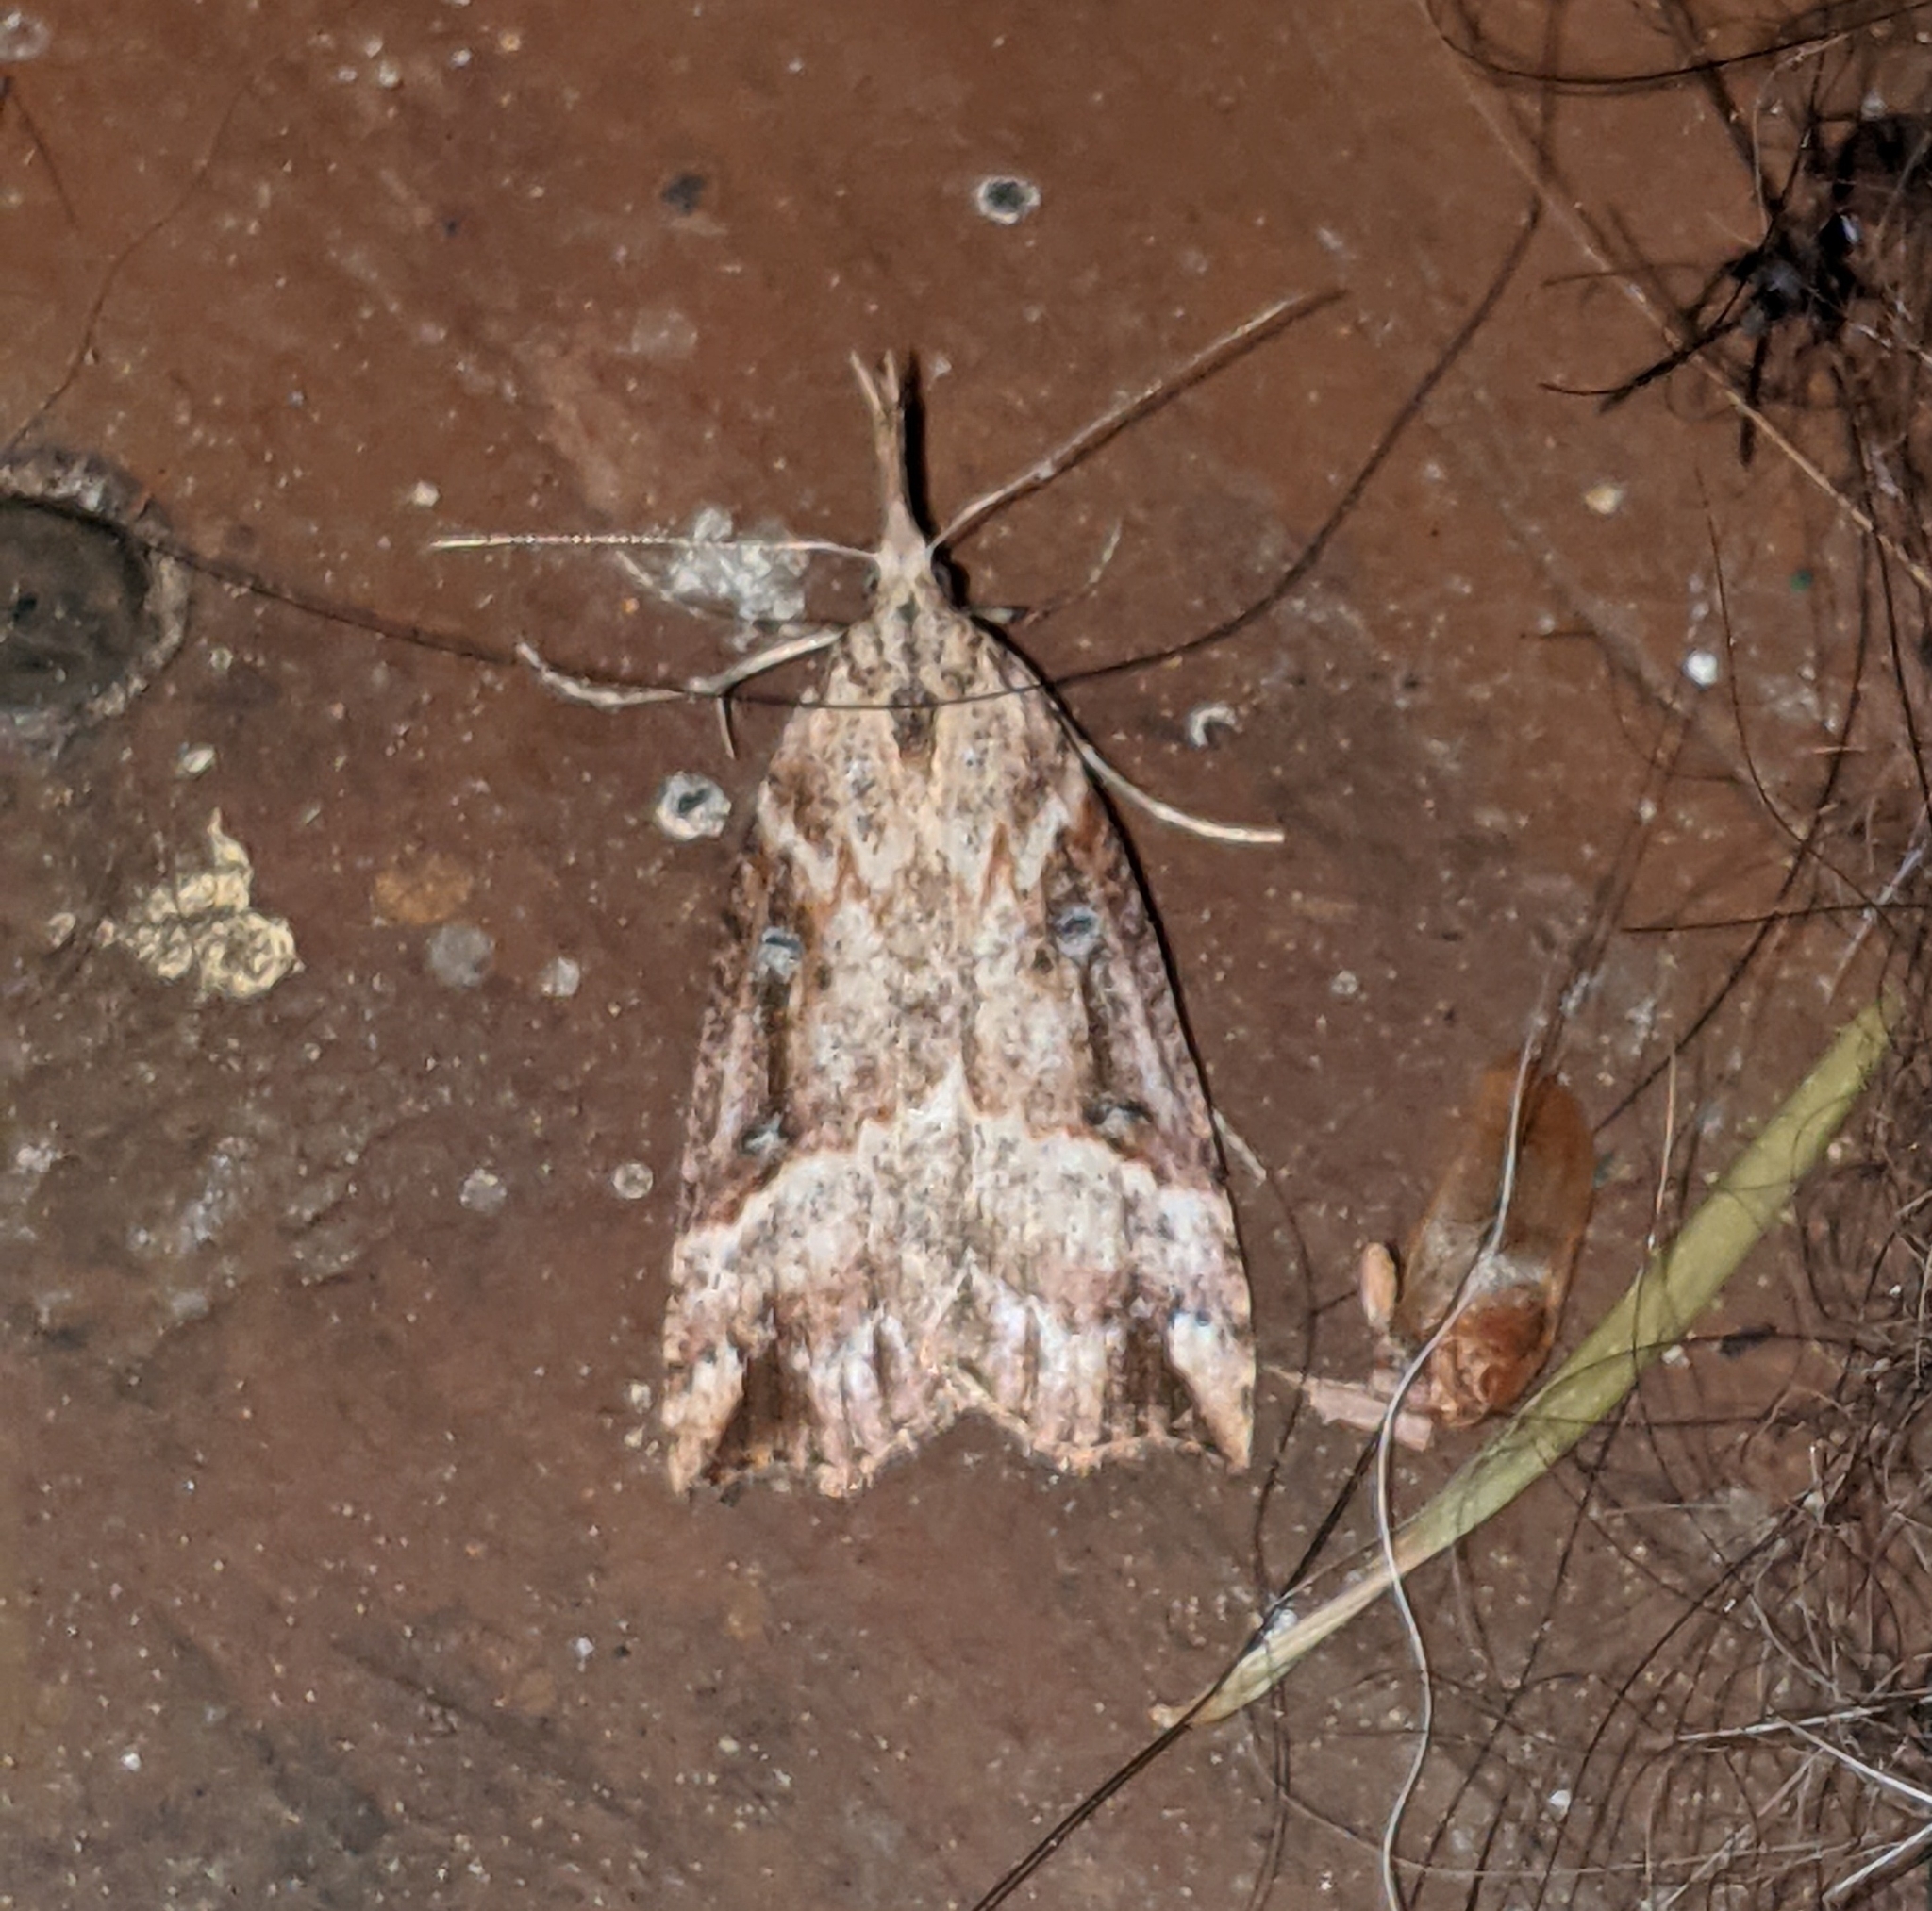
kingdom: Animalia
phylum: Arthropoda
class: Insecta
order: Lepidoptera
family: Erebidae
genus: Hypena
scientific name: Hypena californica
